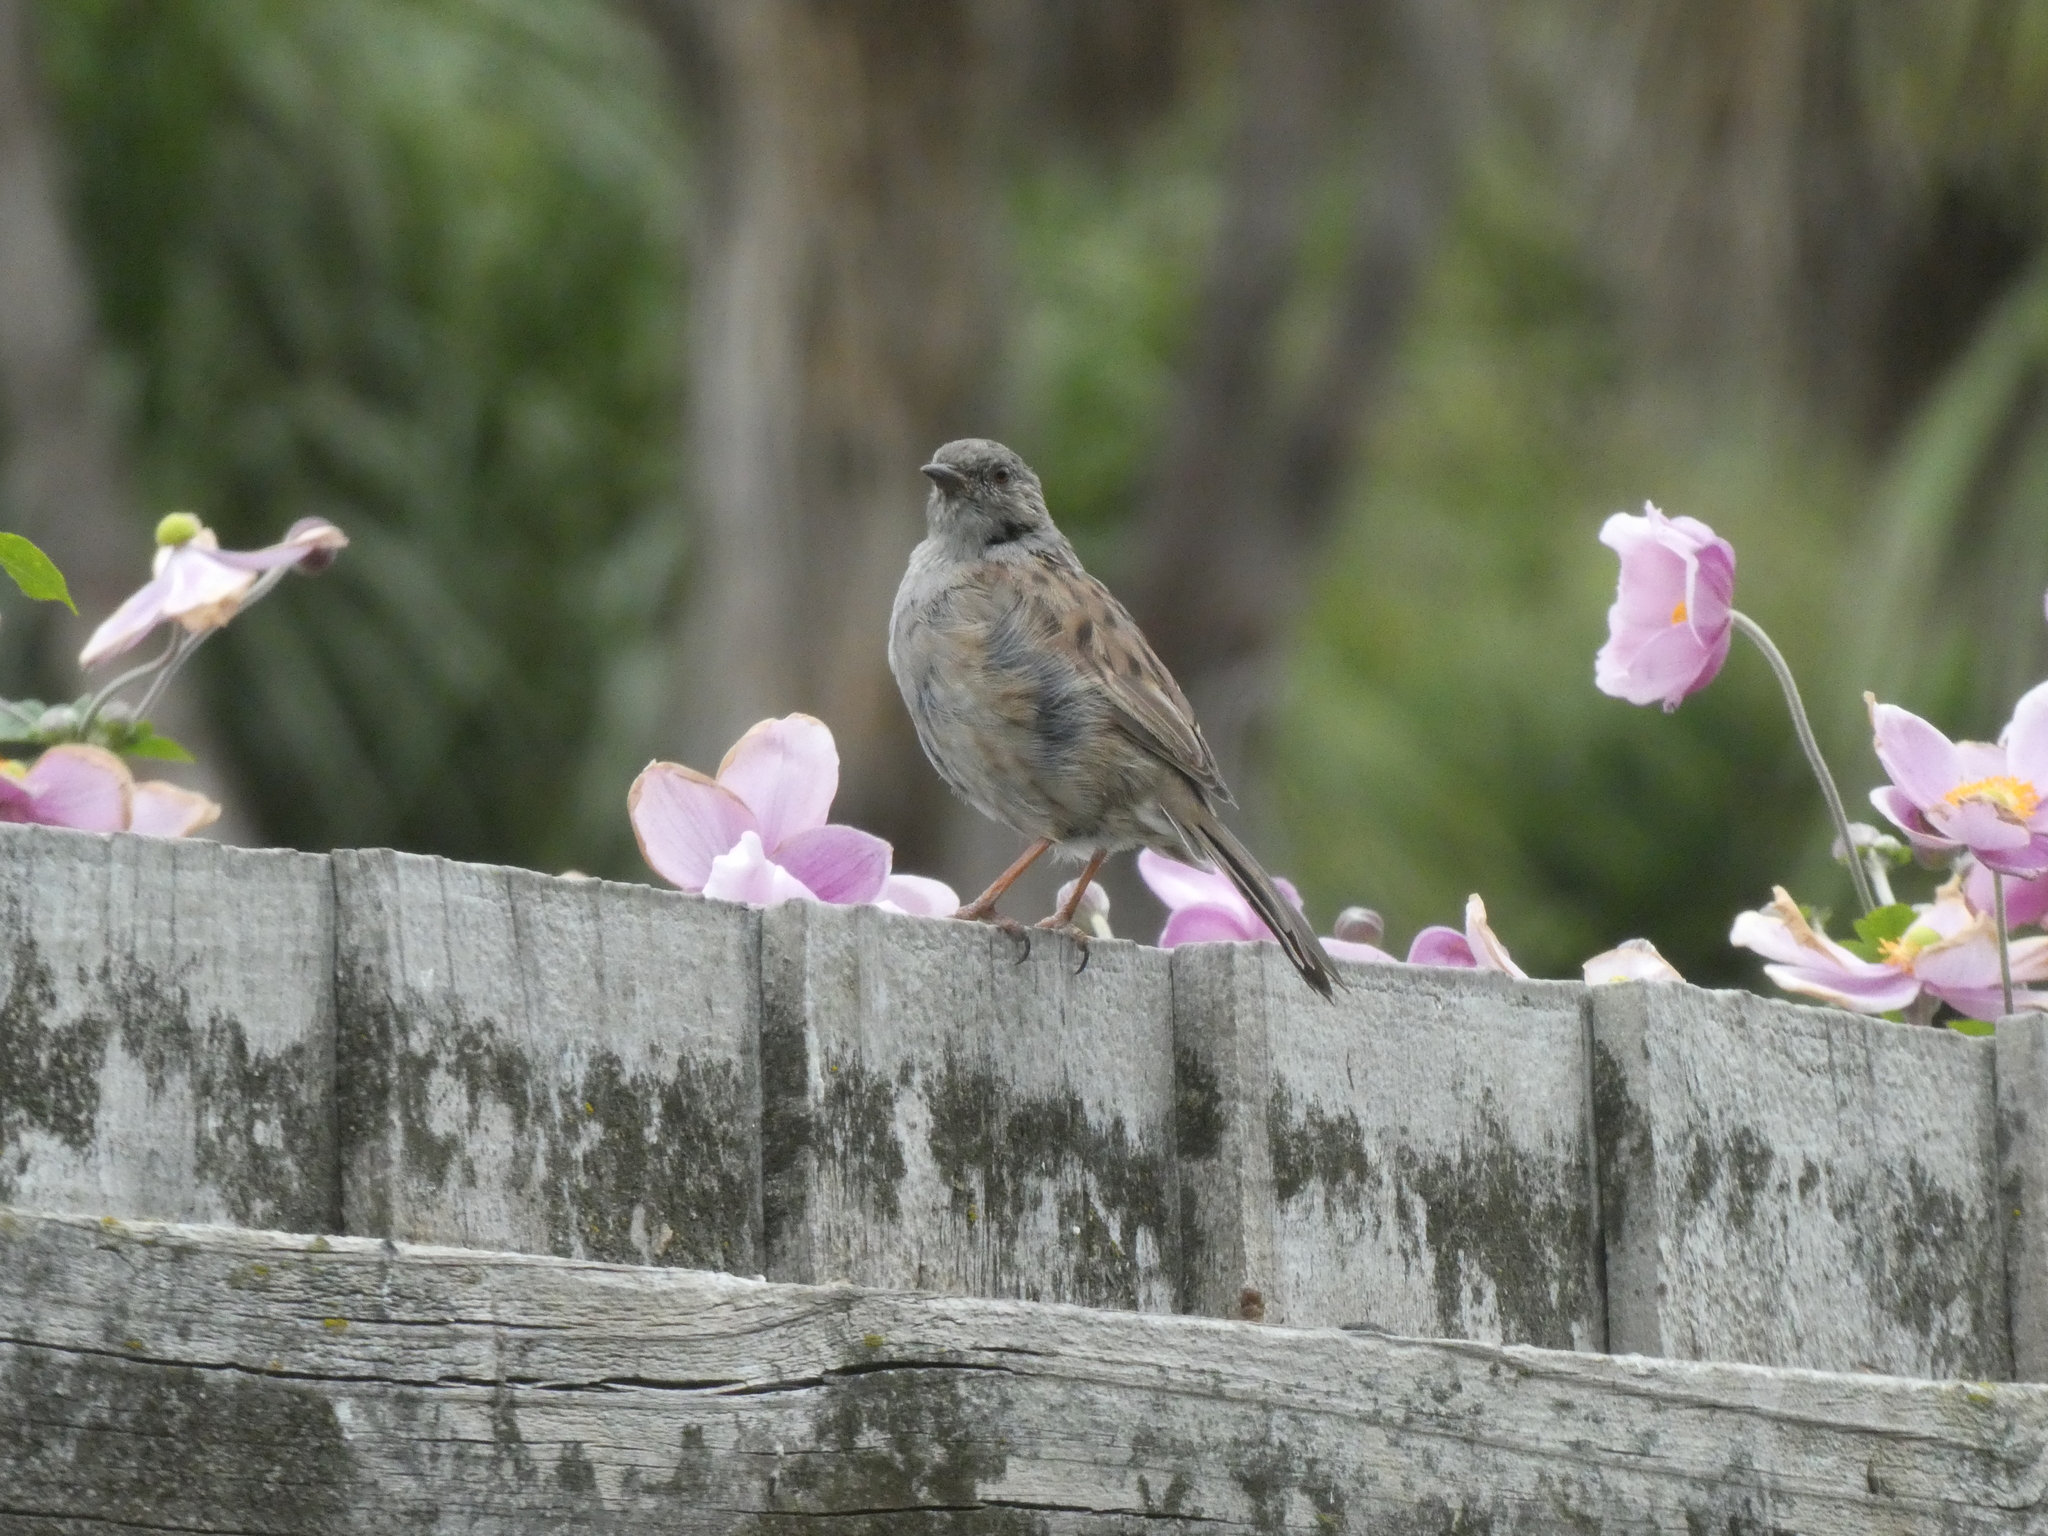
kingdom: Animalia
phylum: Chordata
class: Aves
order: Passeriformes
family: Prunellidae
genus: Prunella
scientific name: Prunella modularis
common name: Dunnock
